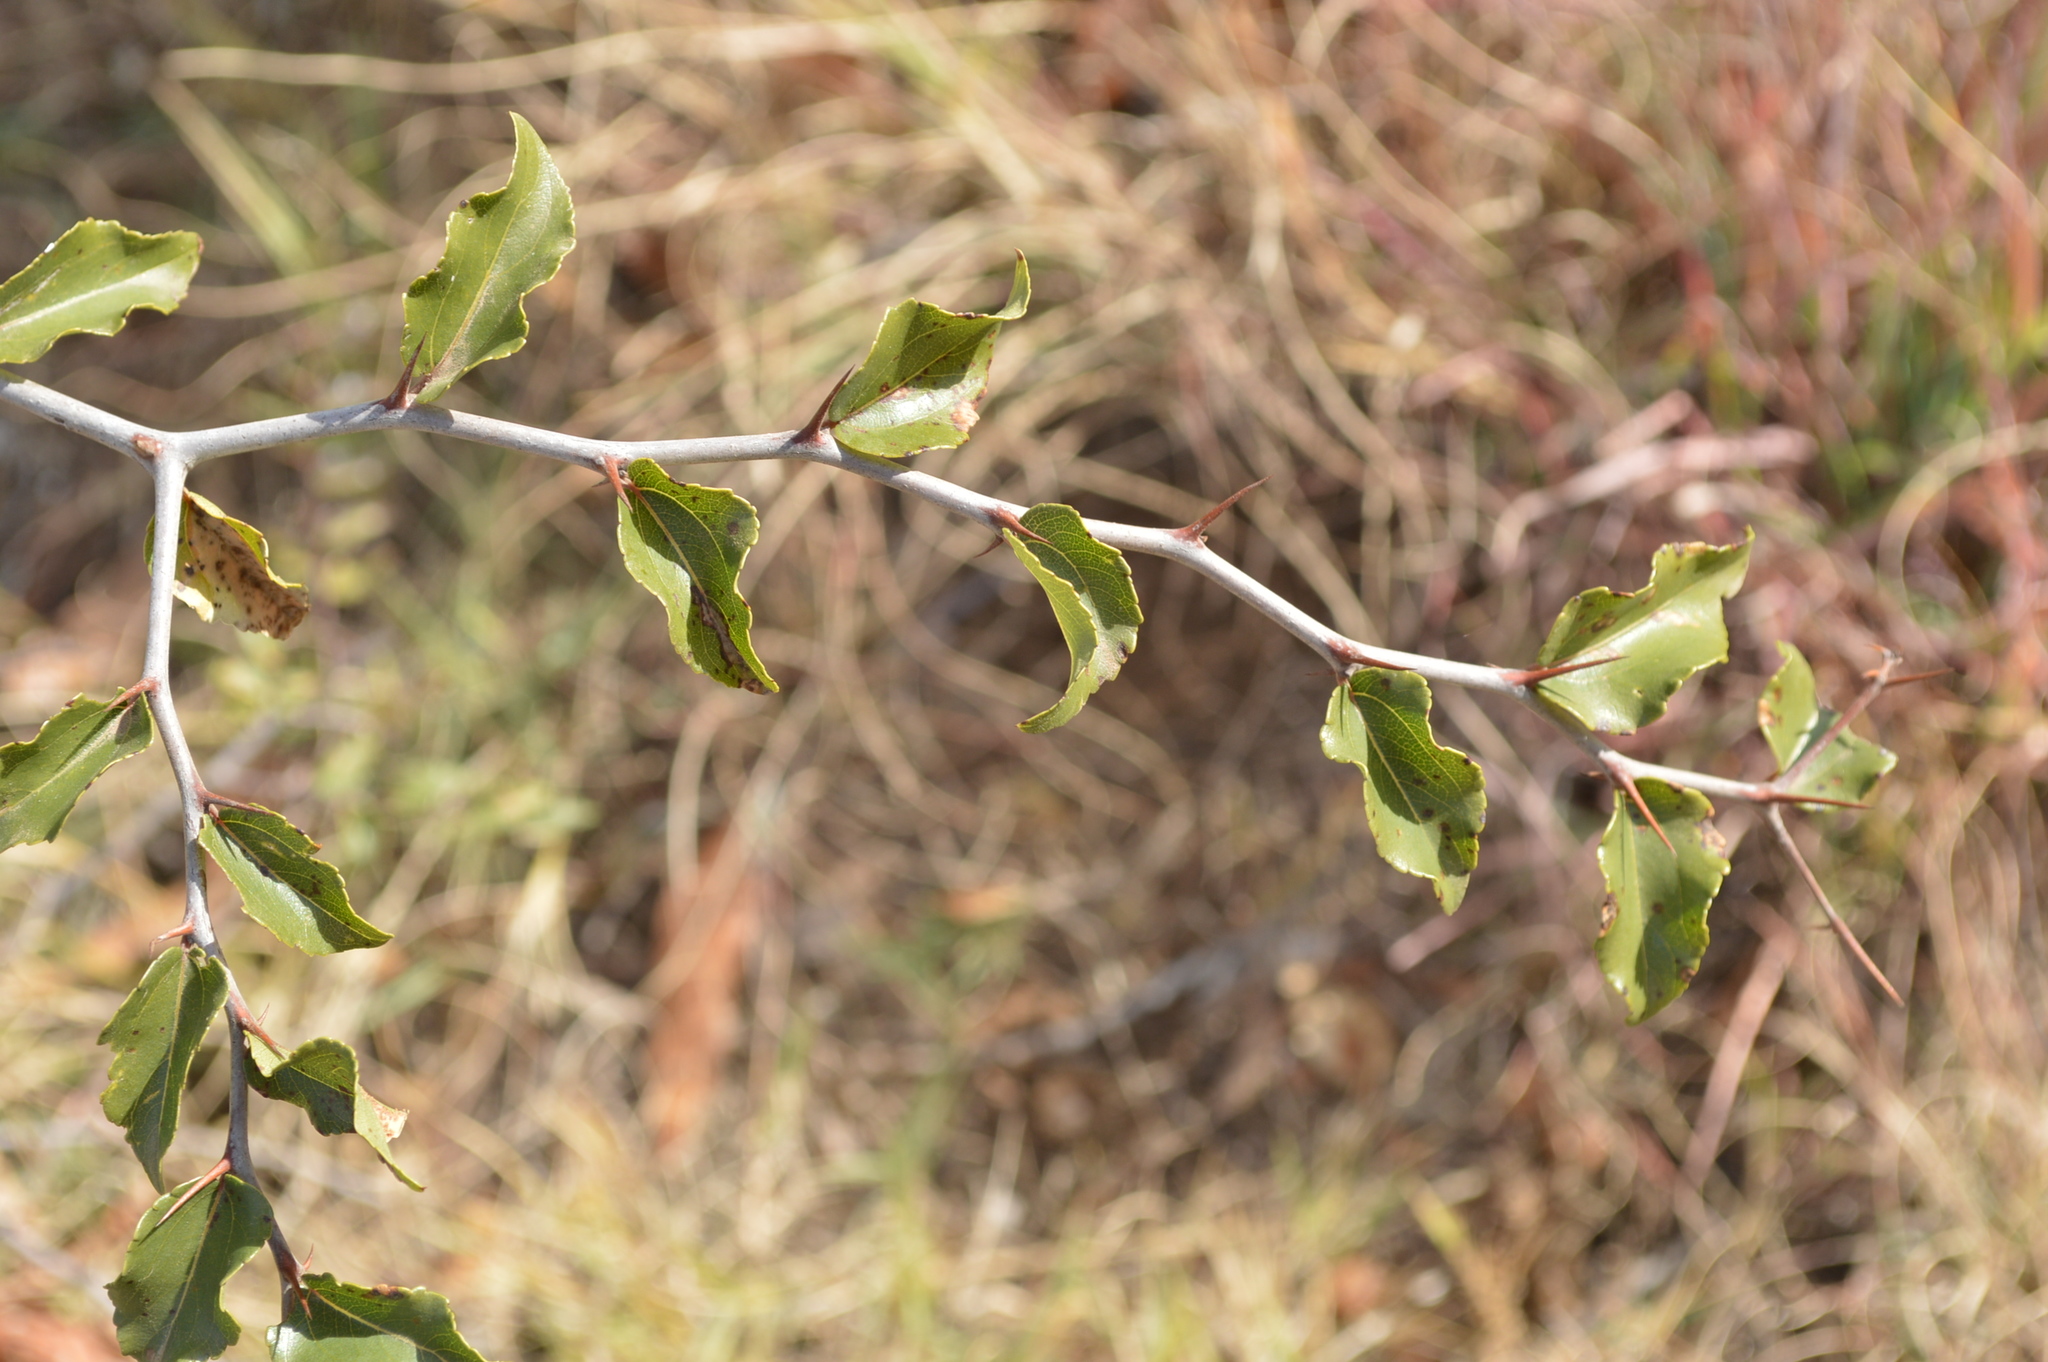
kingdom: Plantae
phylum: Tracheophyta
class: Magnoliopsida
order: Rosales
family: Rhamnaceae
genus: Ziziphus
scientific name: Ziziphus mucronata
